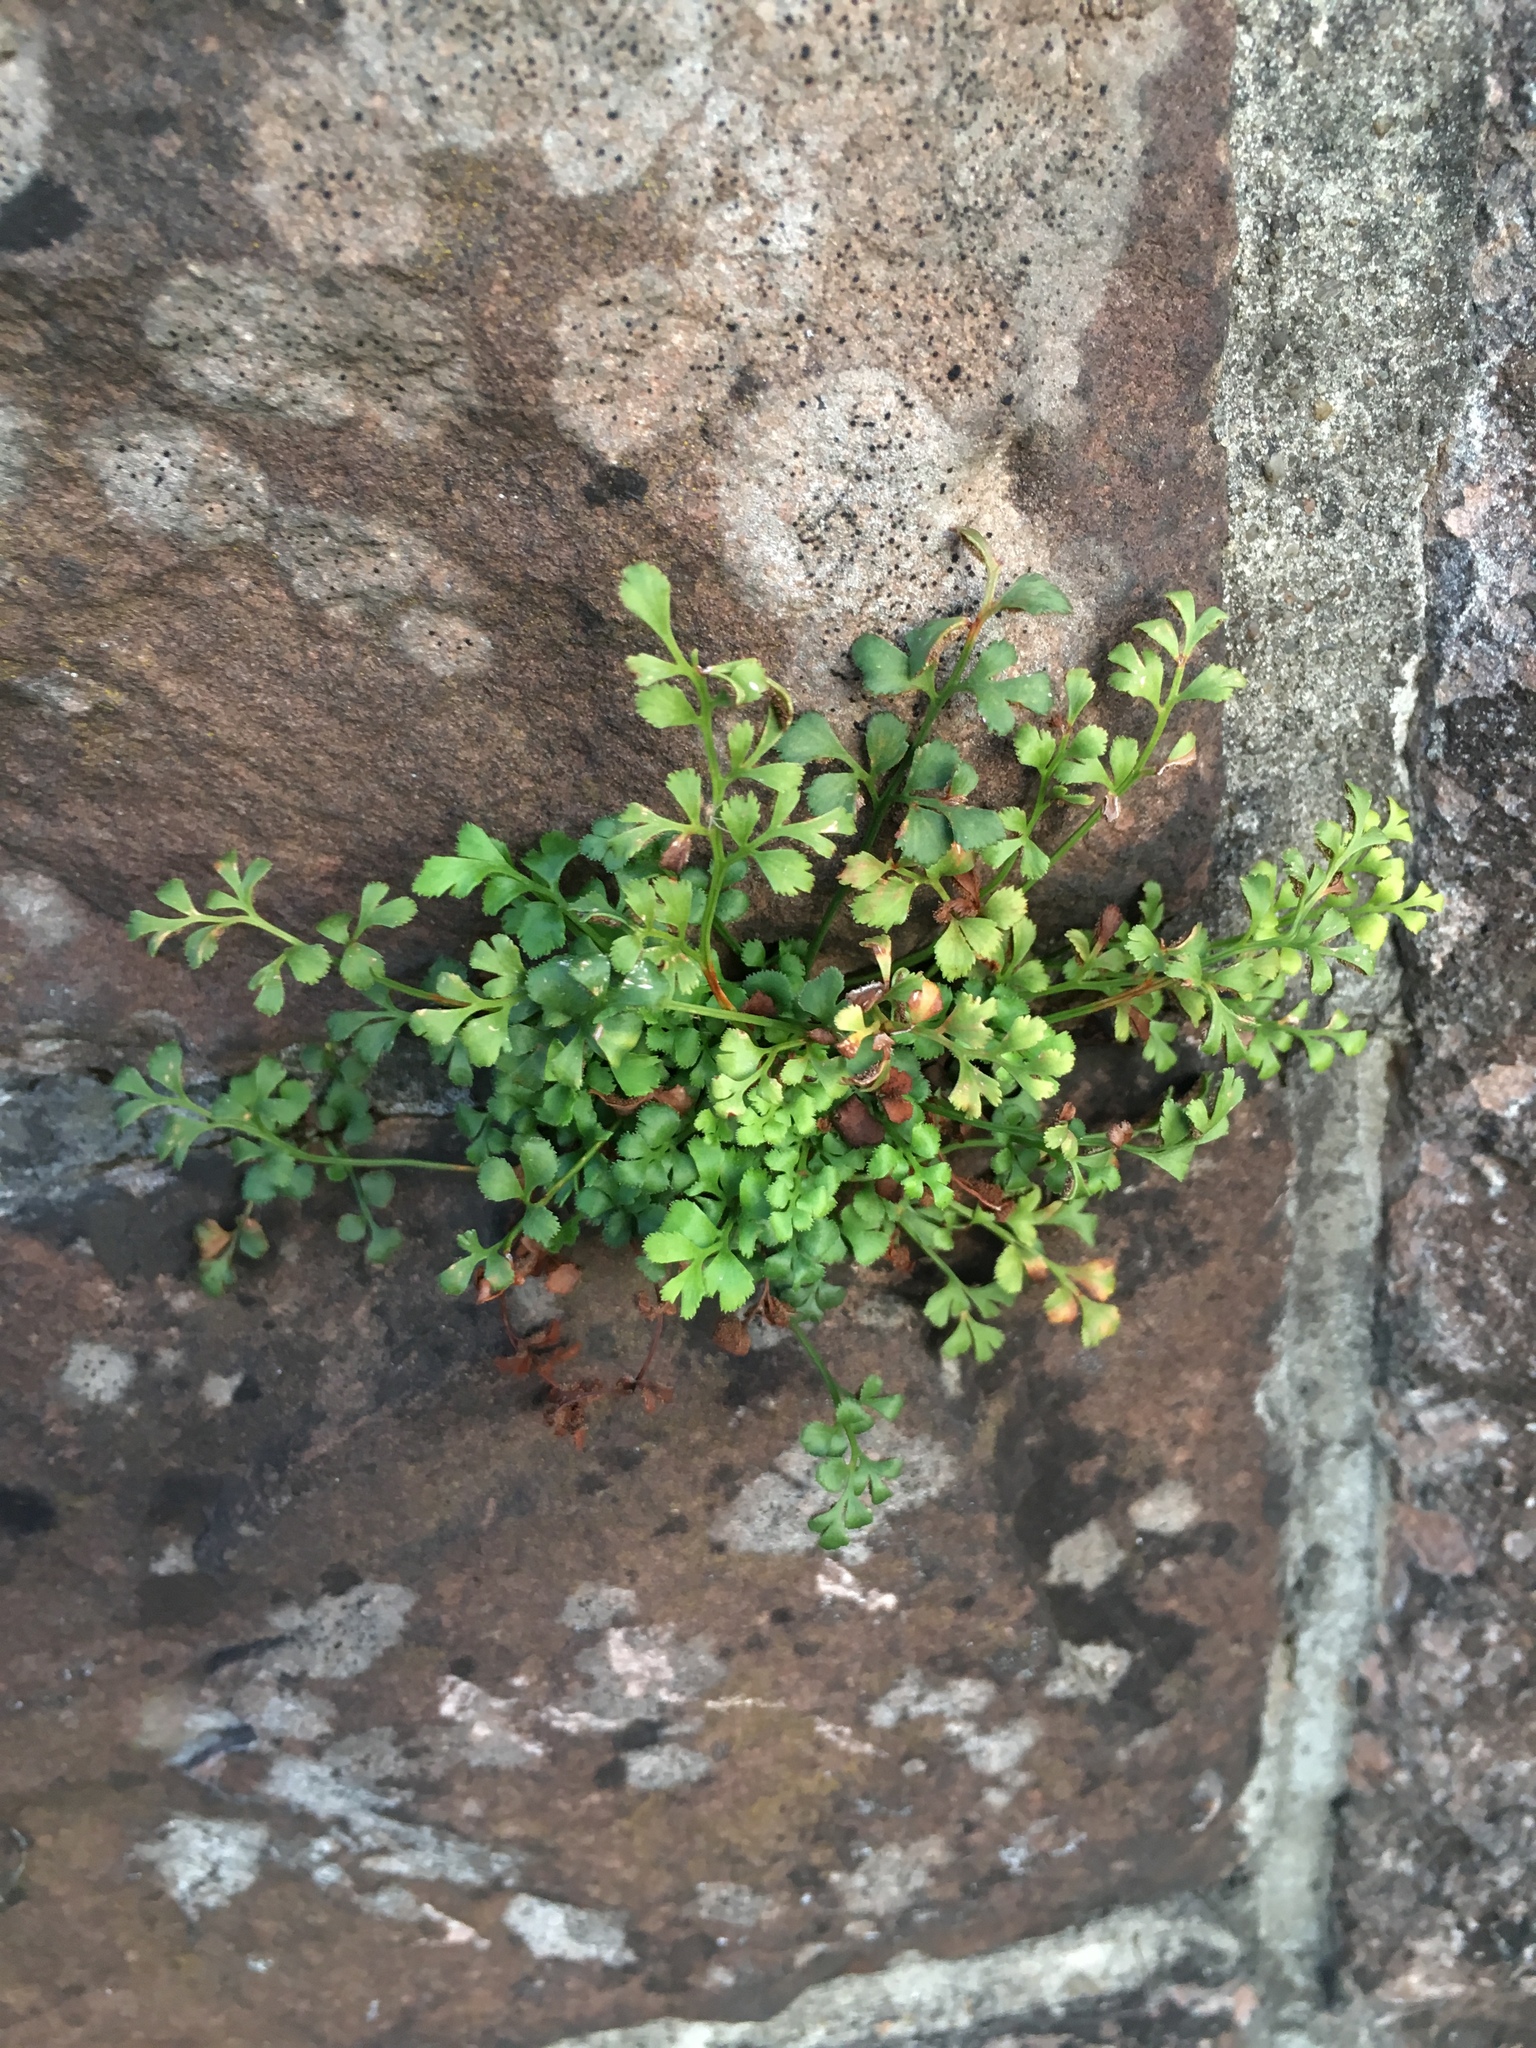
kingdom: Plantae
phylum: Tracheophyta
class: Polypodiopsida
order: Polypodiales
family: Aspleniaceae
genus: Asplenium
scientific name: Asplenium ruta-muraria
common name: Wall-rue
